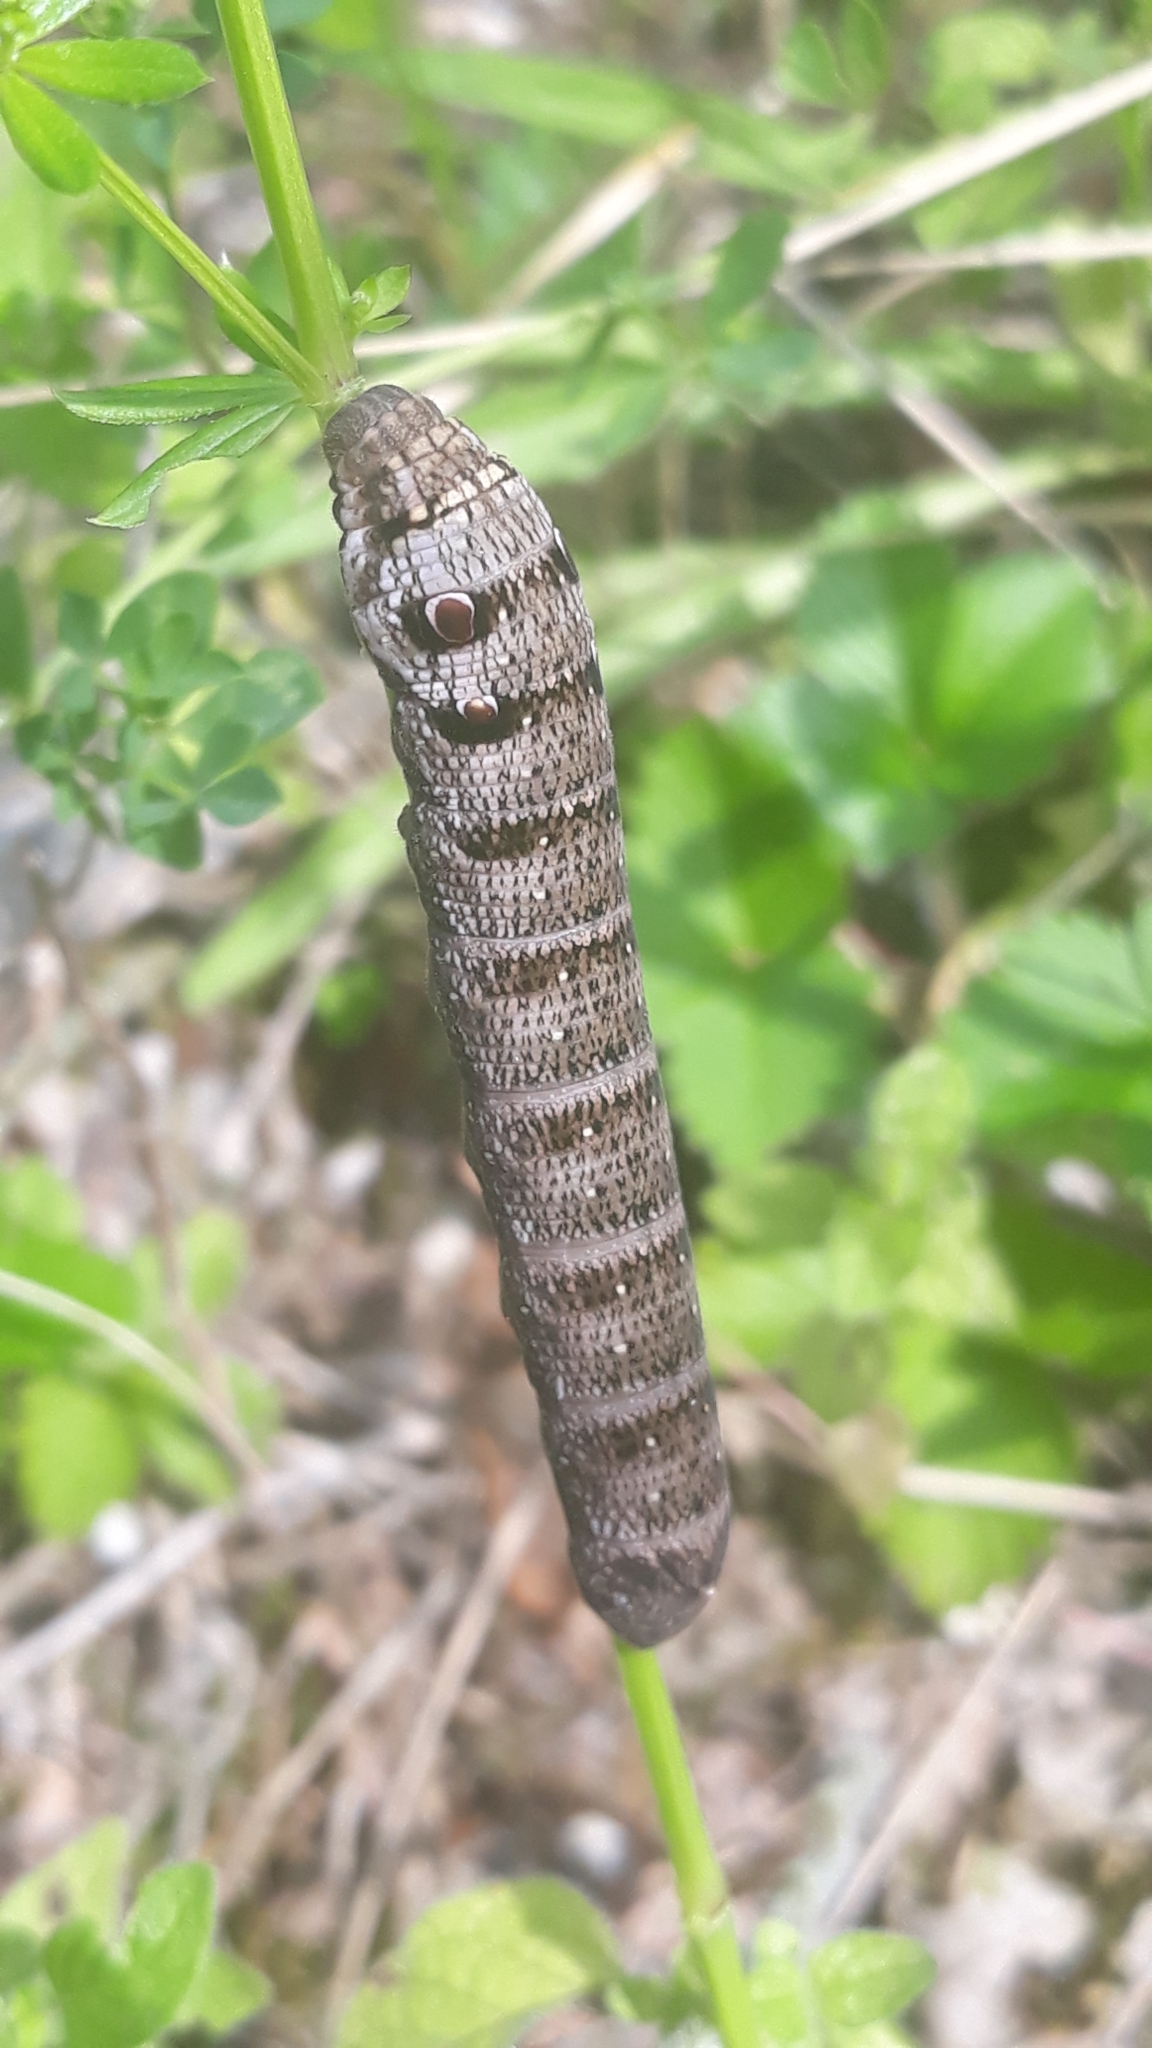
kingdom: Animalia
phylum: Arthropoda
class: Insecta
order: Lepidoptera
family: Sphingidae
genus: Deilephila
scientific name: Deilephila porcellus
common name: Small elephant hawk-moth
